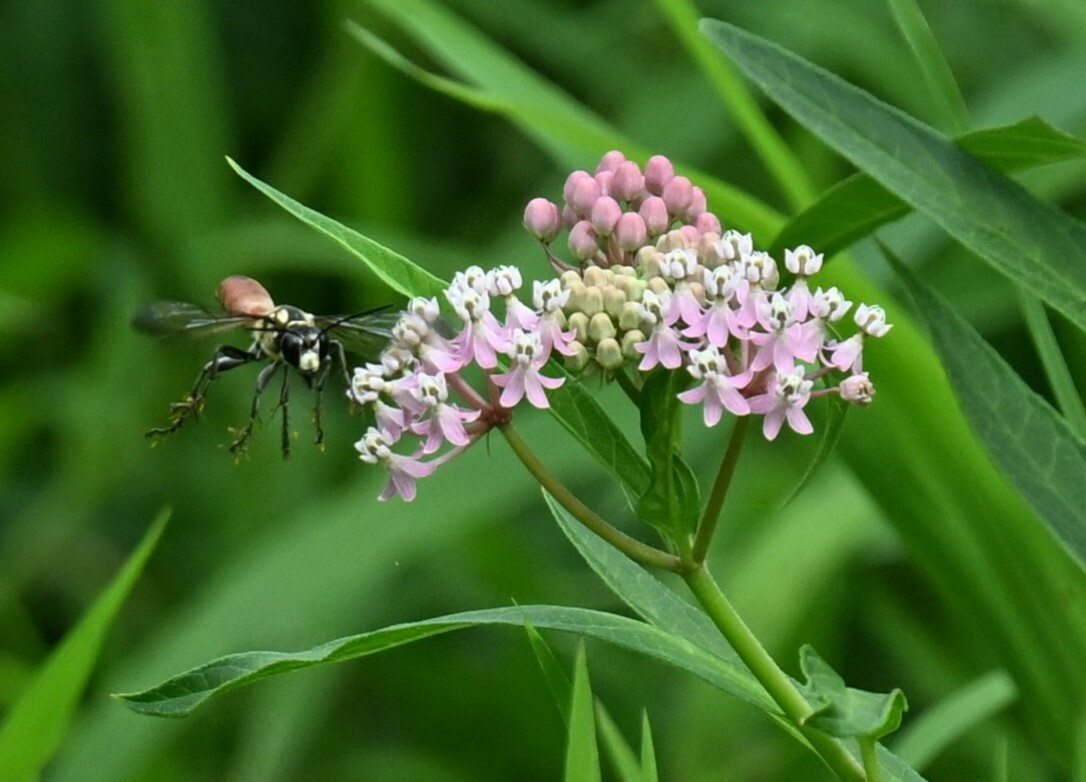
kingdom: Animalia
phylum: Arthropoda
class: Insecta
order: Hymenoptera
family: Sphecidae
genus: Sphex
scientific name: Sphex habenus
